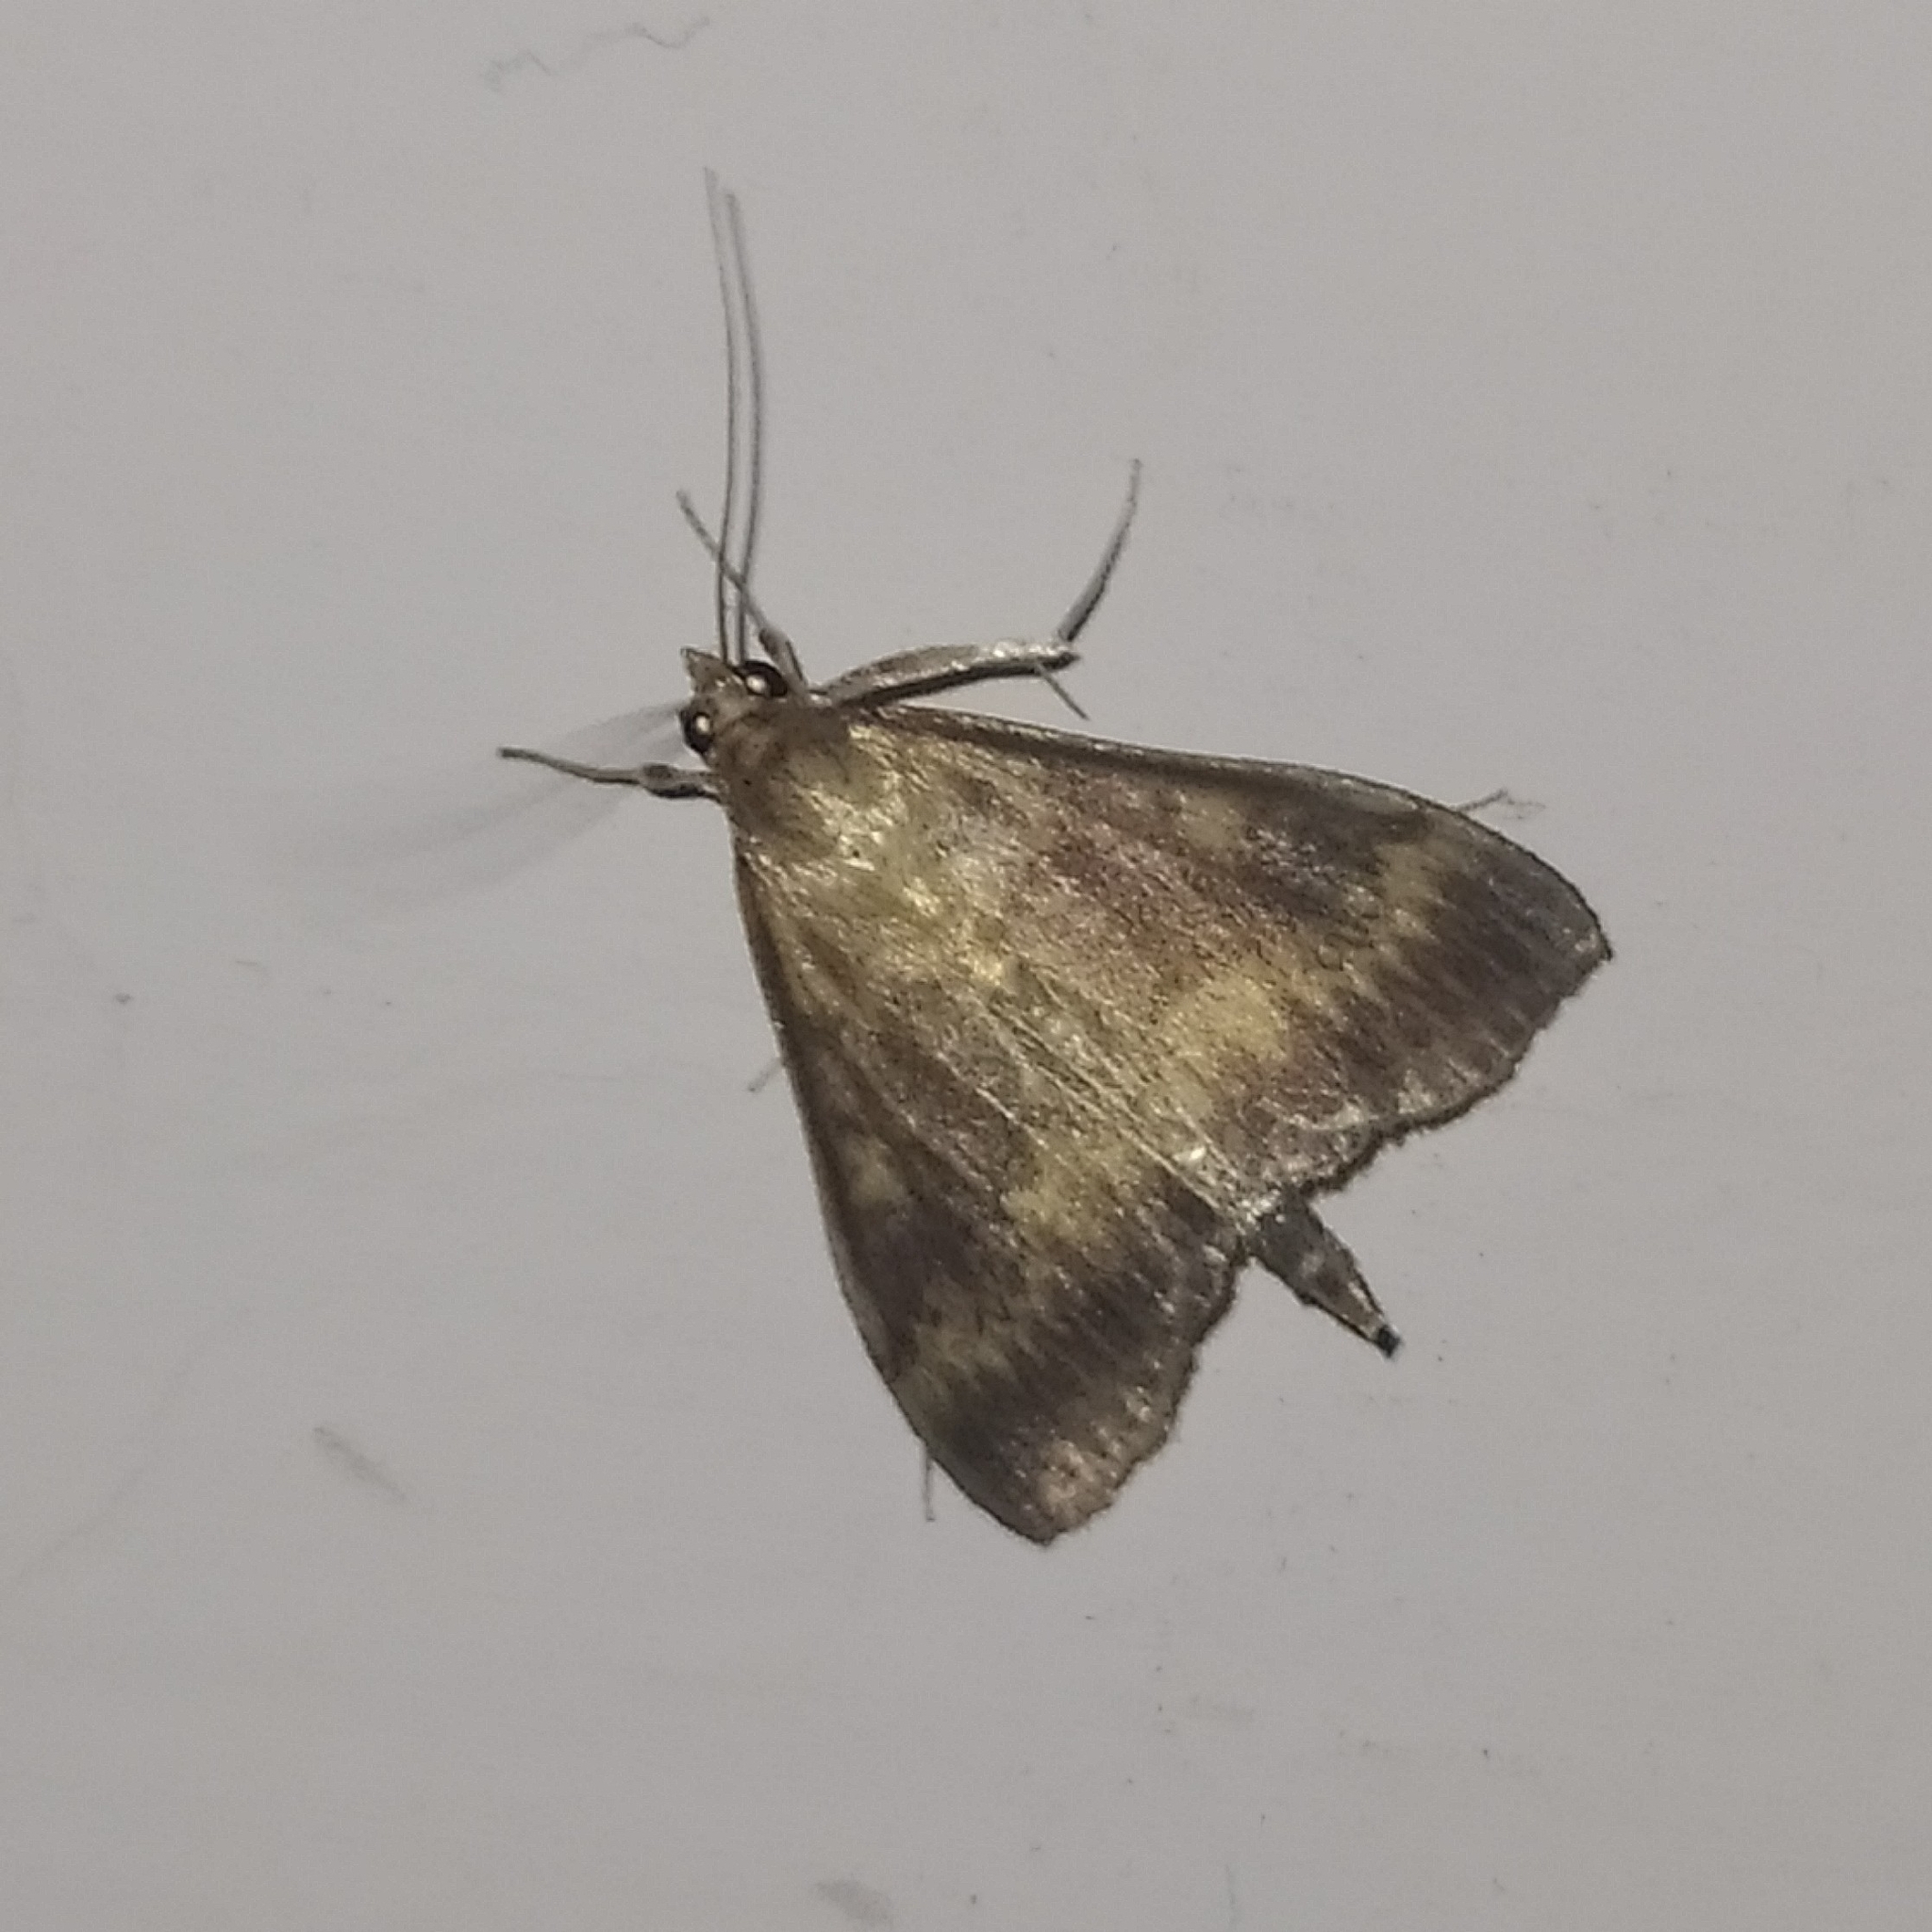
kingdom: Animalia
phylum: Arthropoda
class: Insecta
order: Lepidoptera
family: Crambidae
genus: Ostrinia
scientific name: Ostrinia nubilalis
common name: European corn borer
